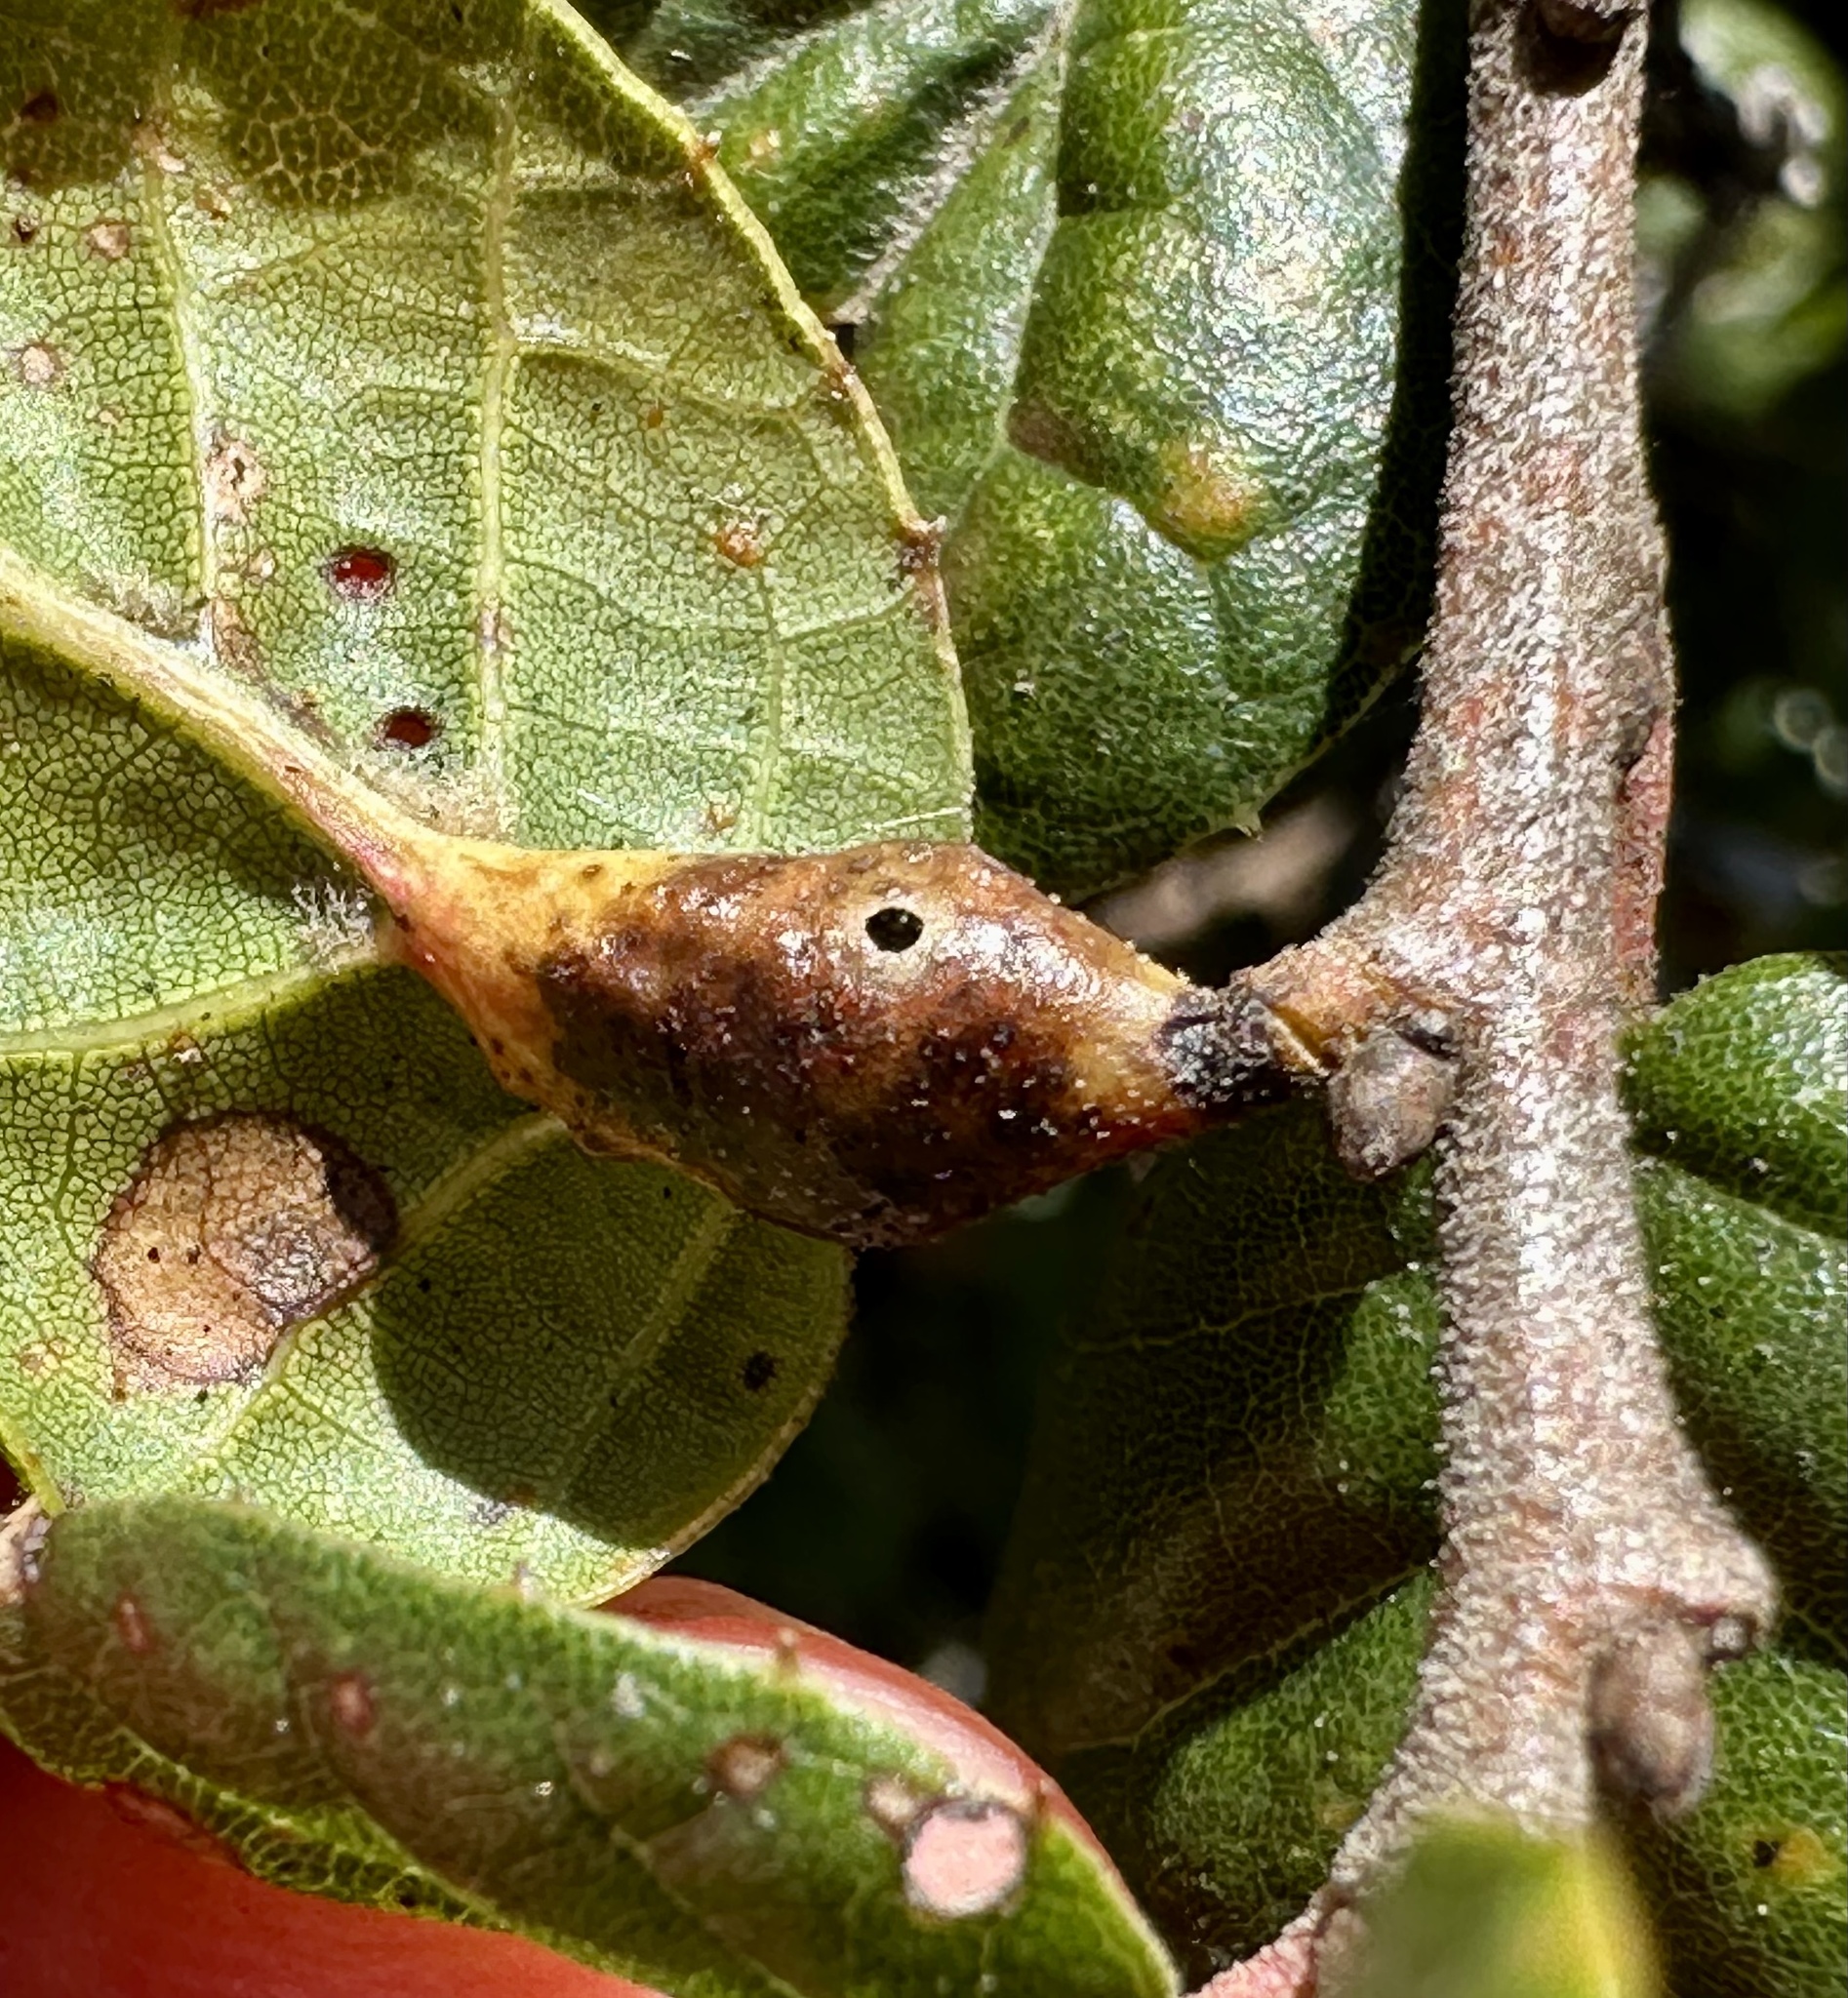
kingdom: Animalia
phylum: Arthropoda
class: Insecta
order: Hymenoptera
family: Cynipidae
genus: Melikaiella
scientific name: Melikaiella
